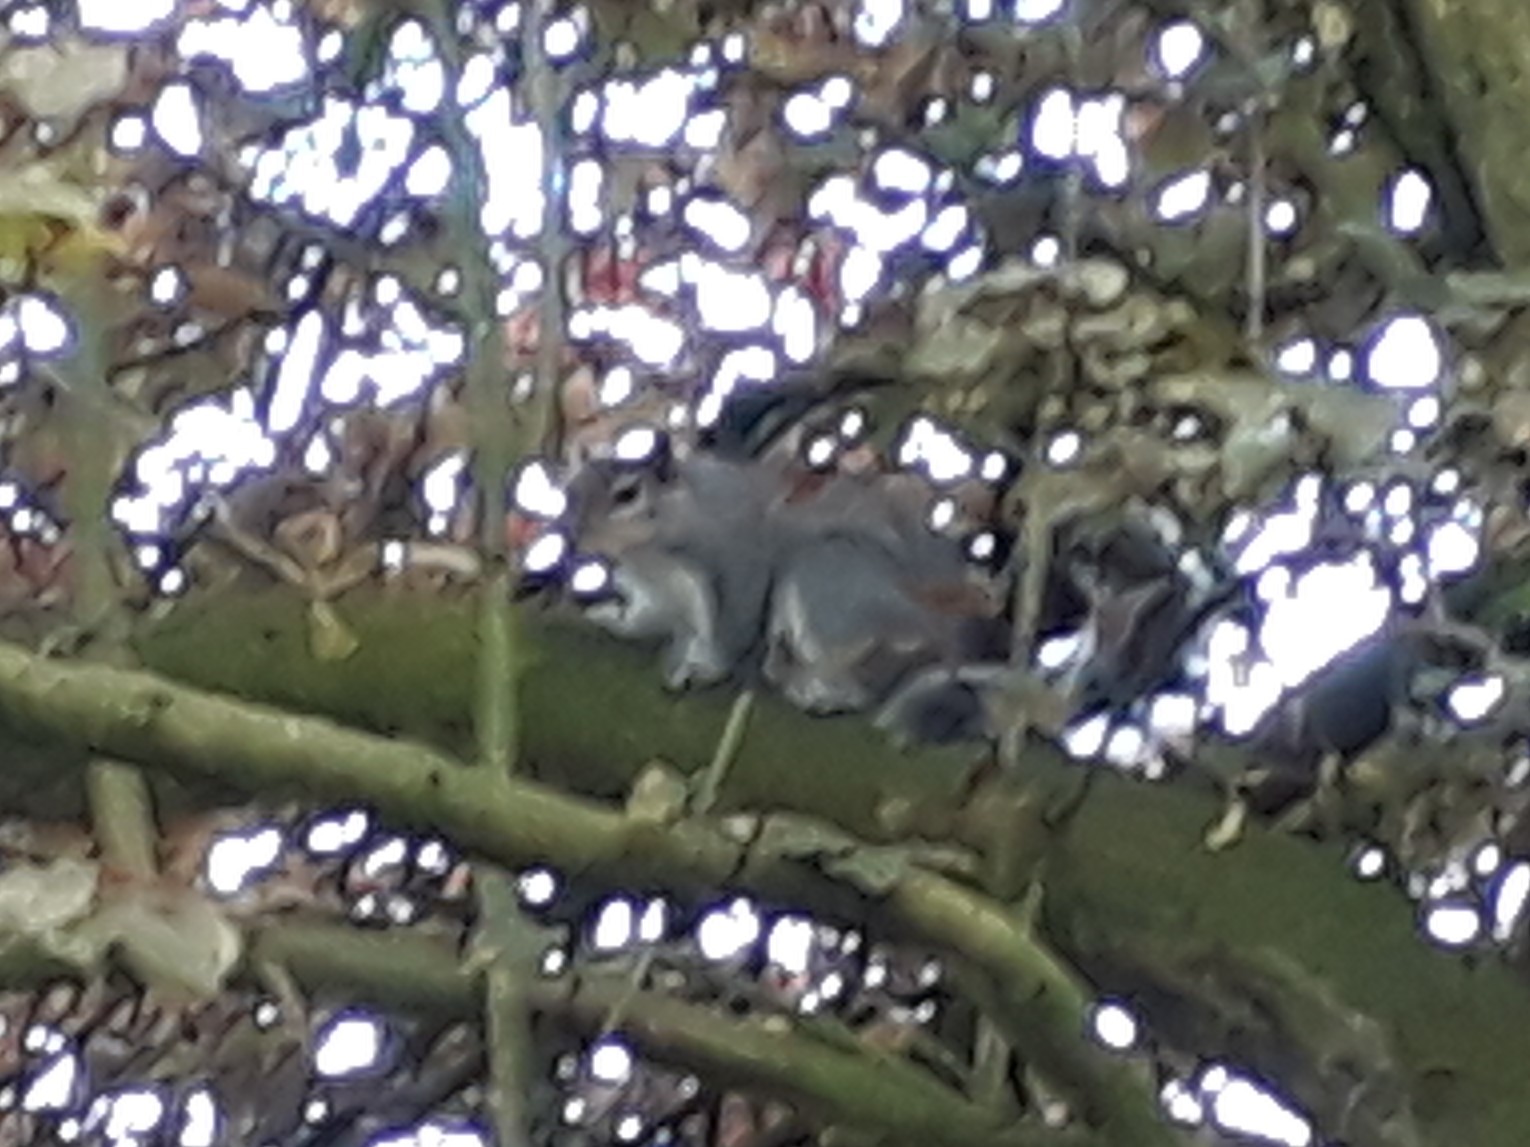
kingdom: Animalia
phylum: Chordata
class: Mammalia
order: Rodentia
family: Sciuridae
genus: Sciurus
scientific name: Sciurus carolinensis
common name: Eastern gray squirrel
